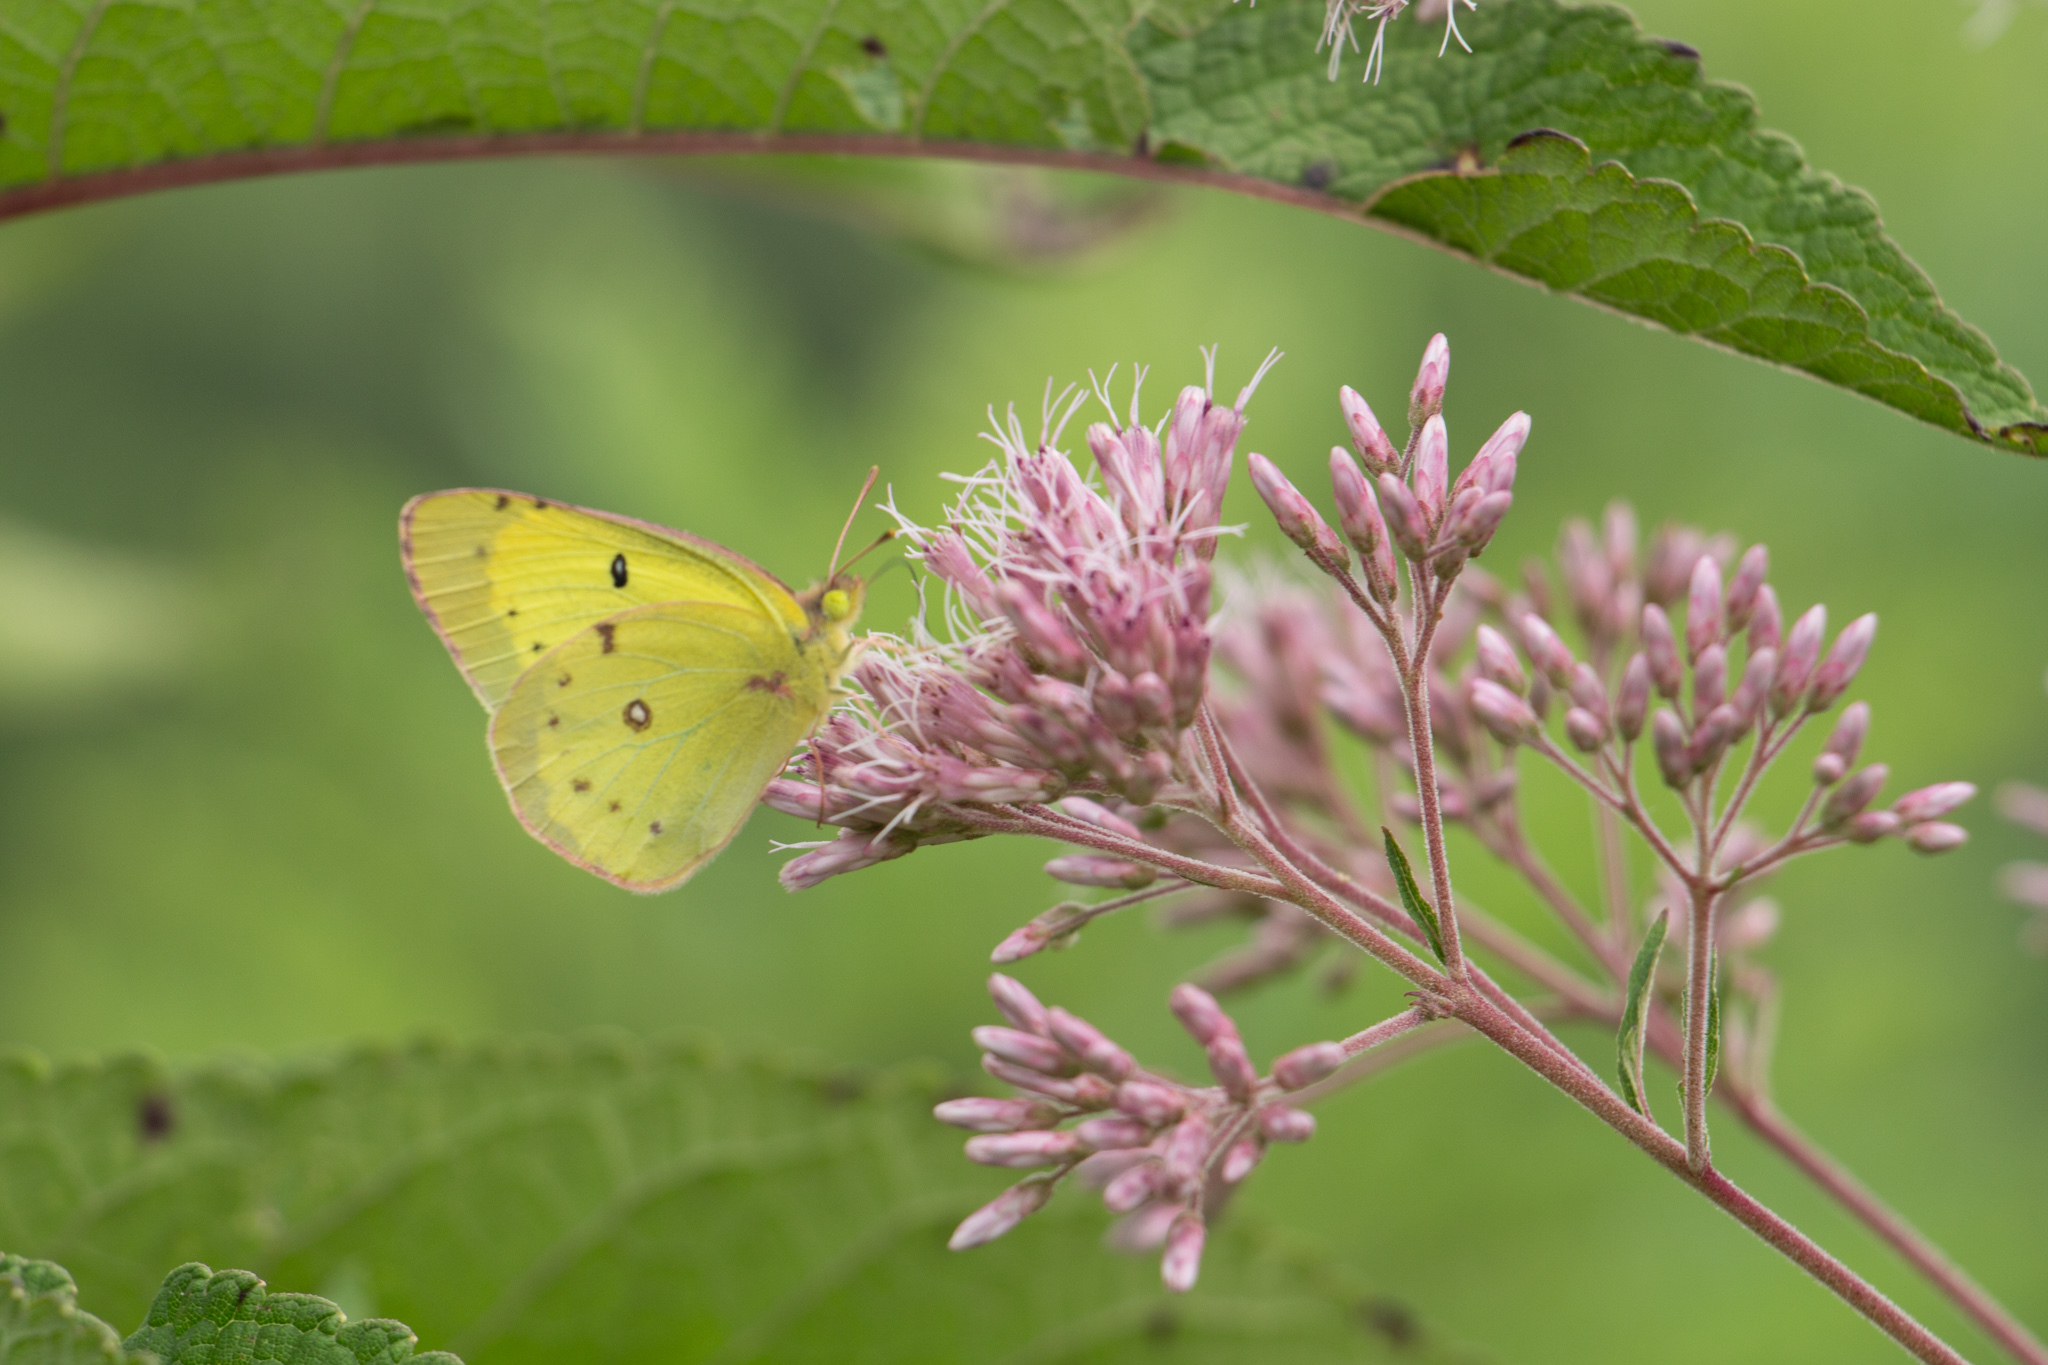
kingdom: Animalia
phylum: Arthropoda
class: Insecta
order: Lepidoptera
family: Pieridae
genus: Colias
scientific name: Colias philodice
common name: Clouded sulphur
